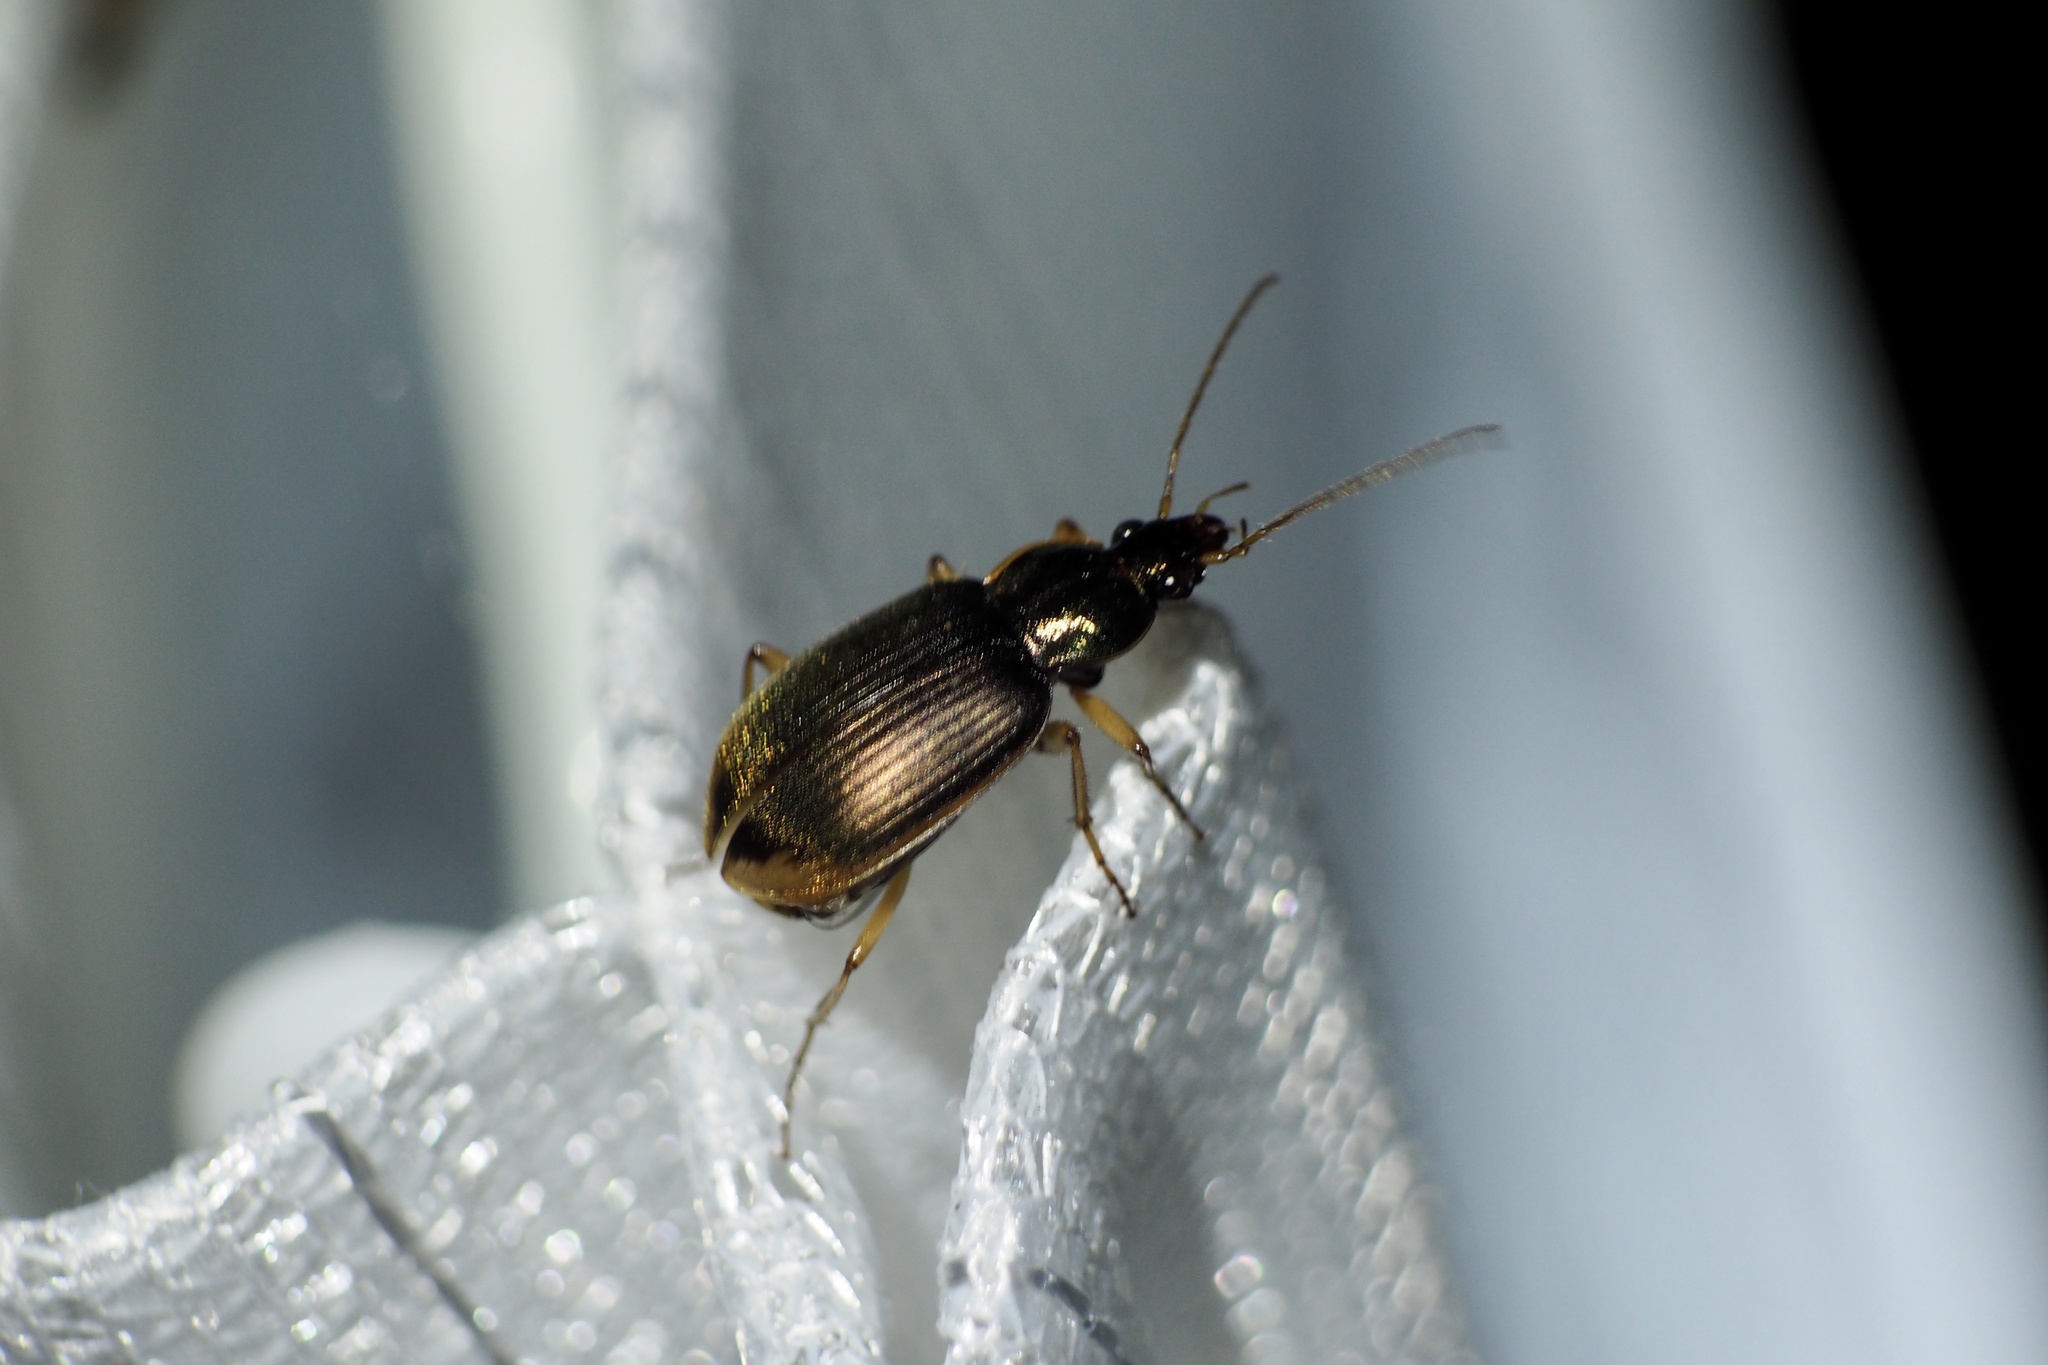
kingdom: Animalia
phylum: Arthropoda
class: Insecta
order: Coleoptera
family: Carabidae
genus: Chlaenius
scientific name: Chlaenius inops
